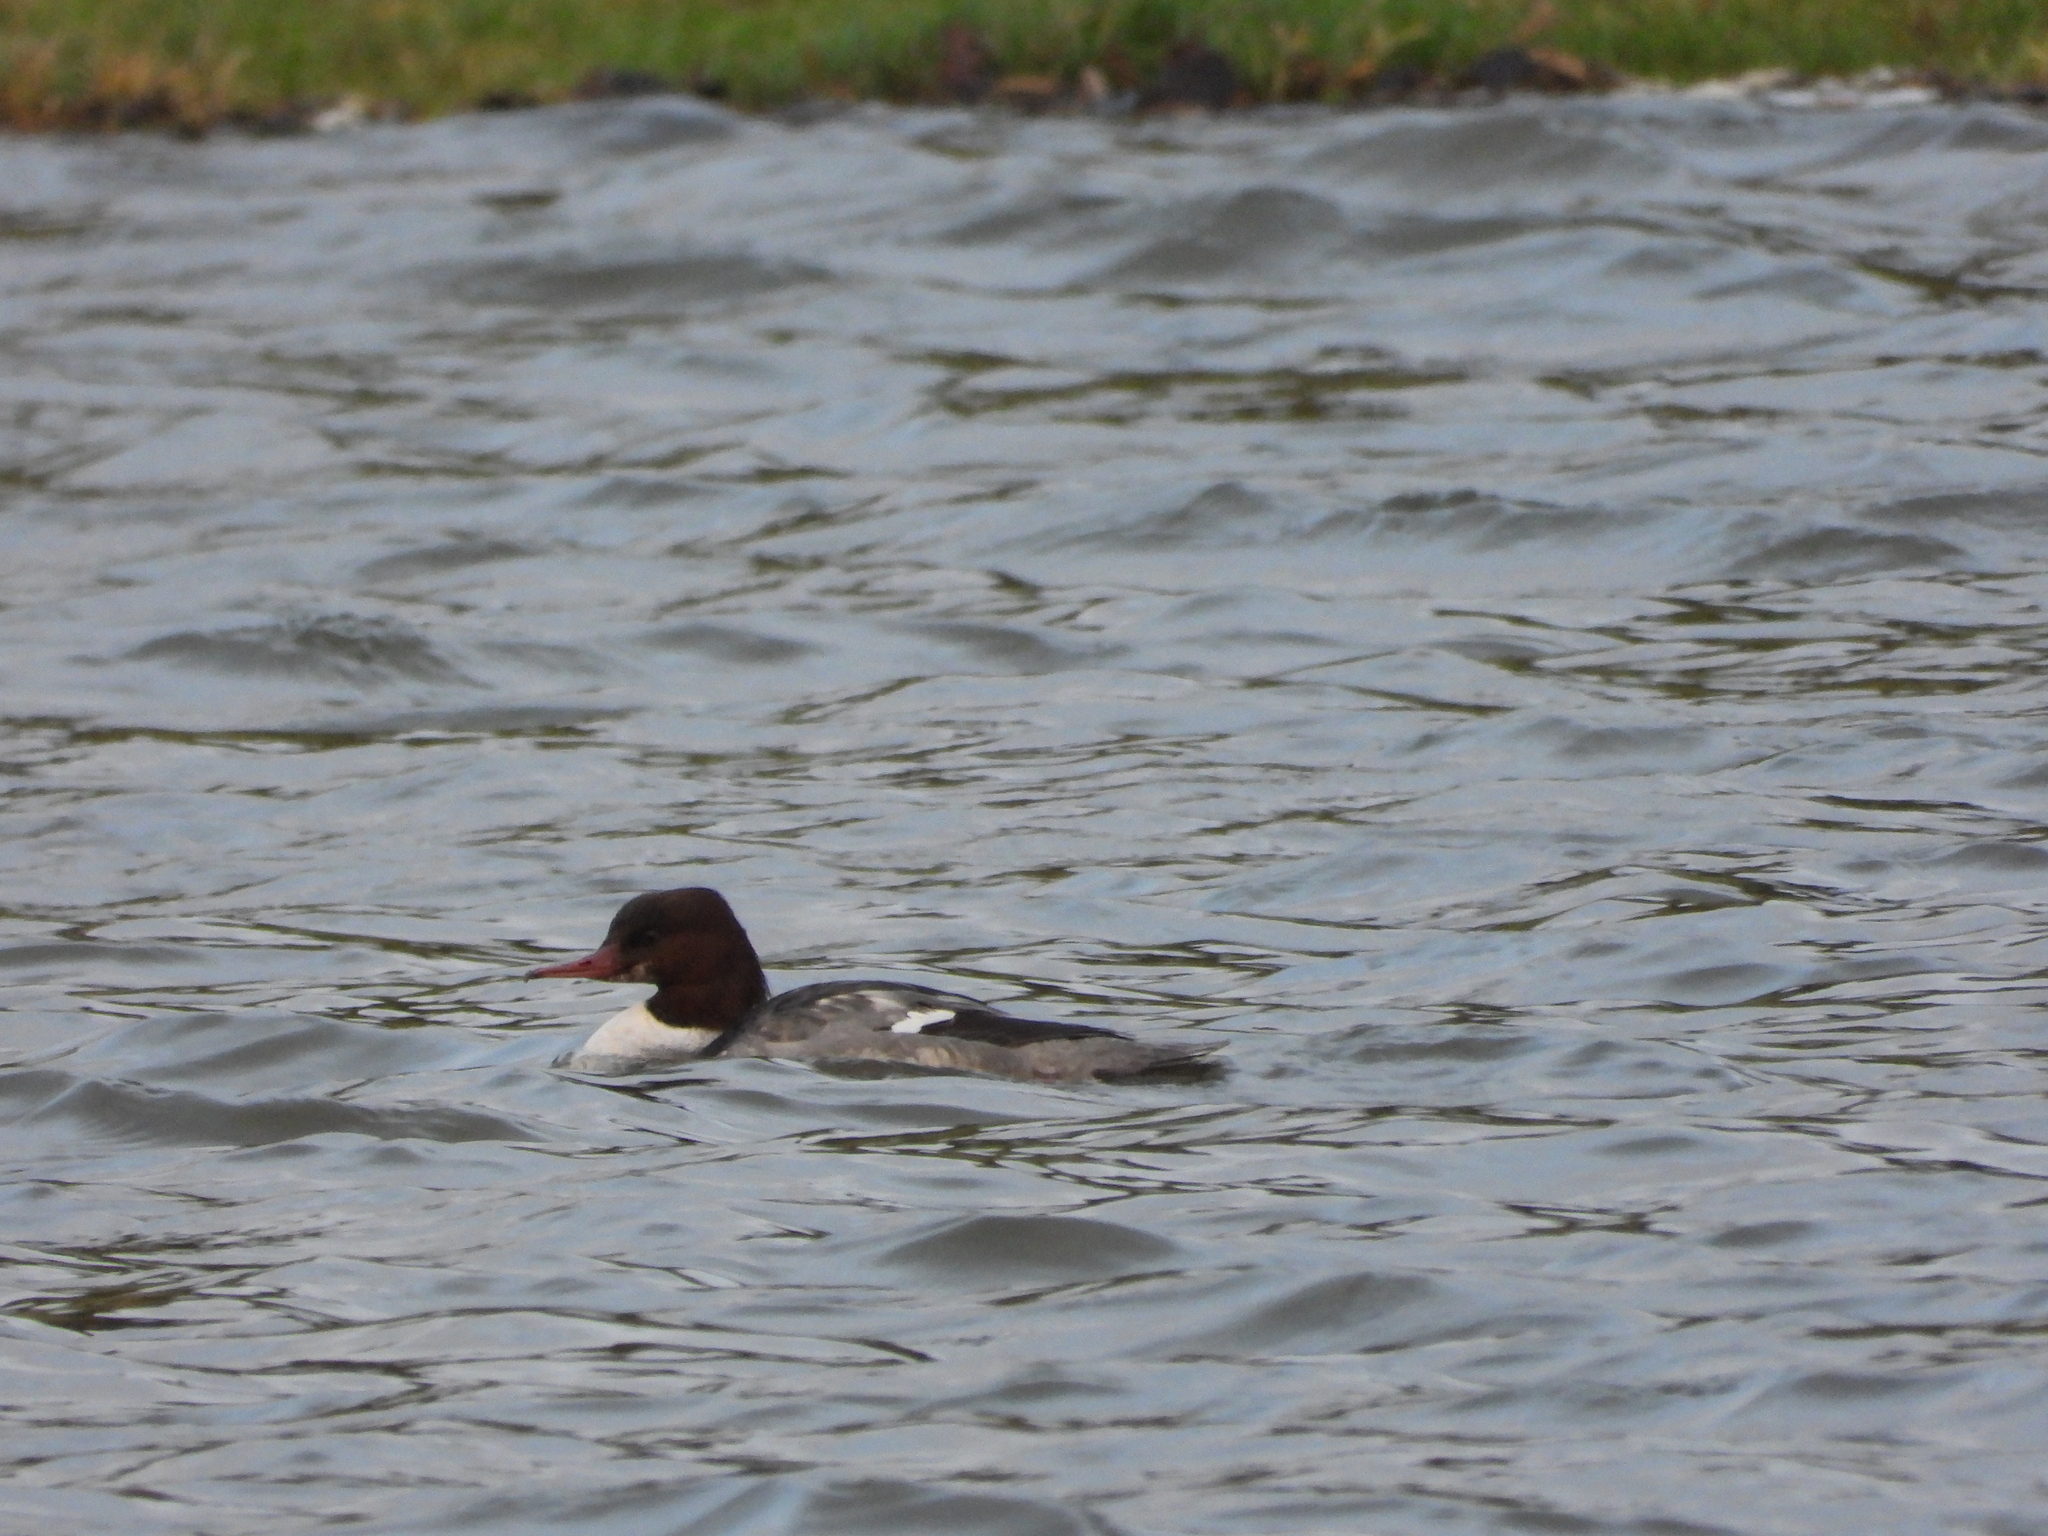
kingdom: Animalia
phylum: Chordata
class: Aves
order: Anseriformes
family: Anatidae
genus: Mergus
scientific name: Mergus merganser
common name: Common merganser
